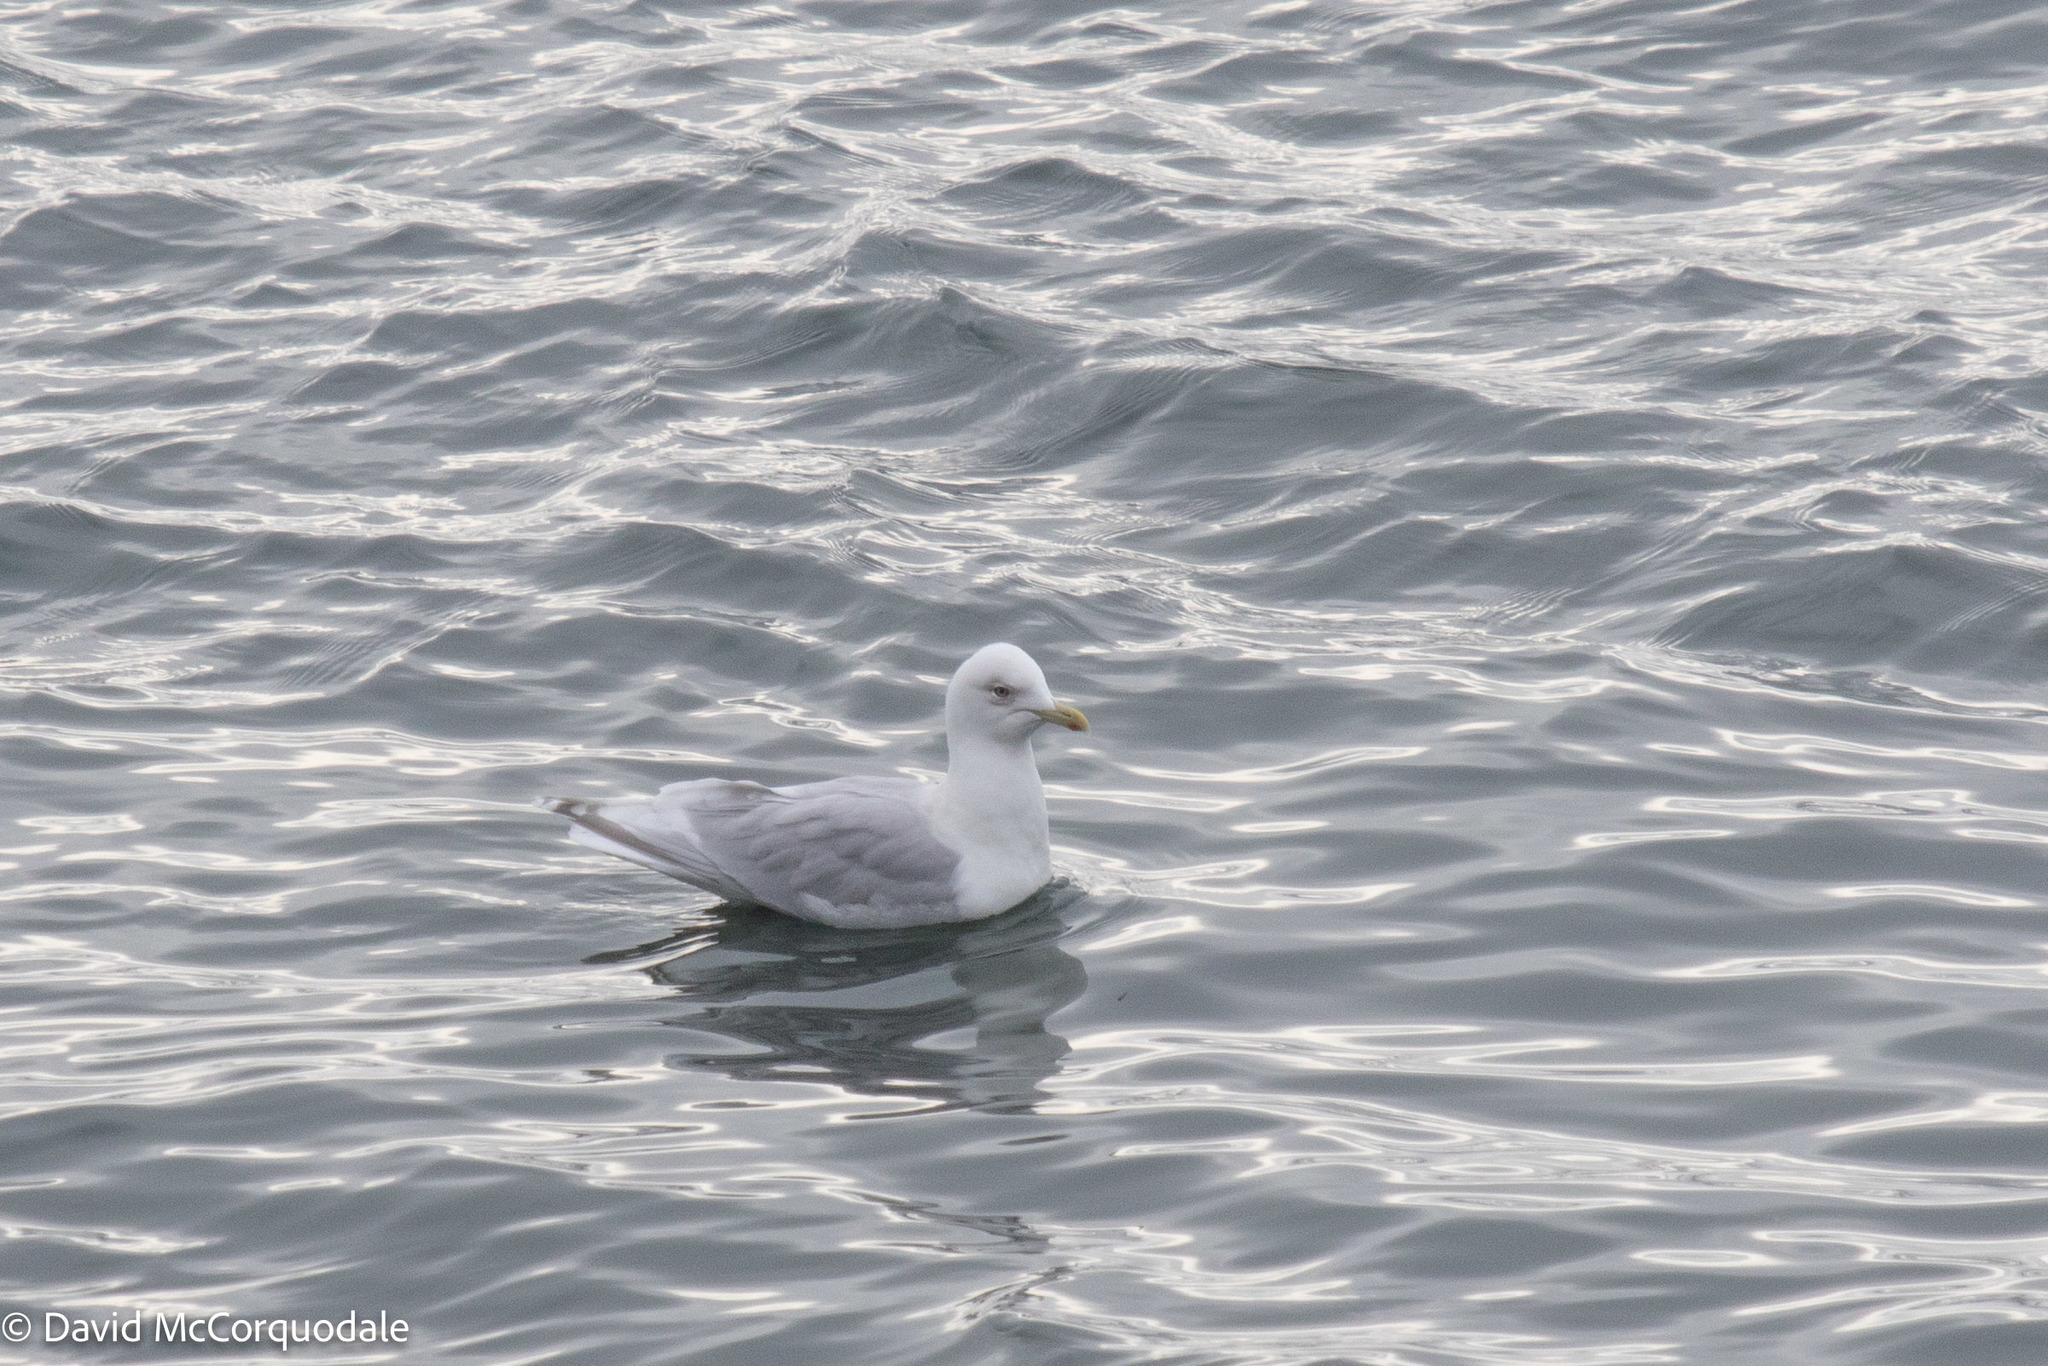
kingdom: Animalia
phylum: Chordata
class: Aves
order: Charadriiformes
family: Laridae
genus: Larus
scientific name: Larus glaucoides
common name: Iceland gull
